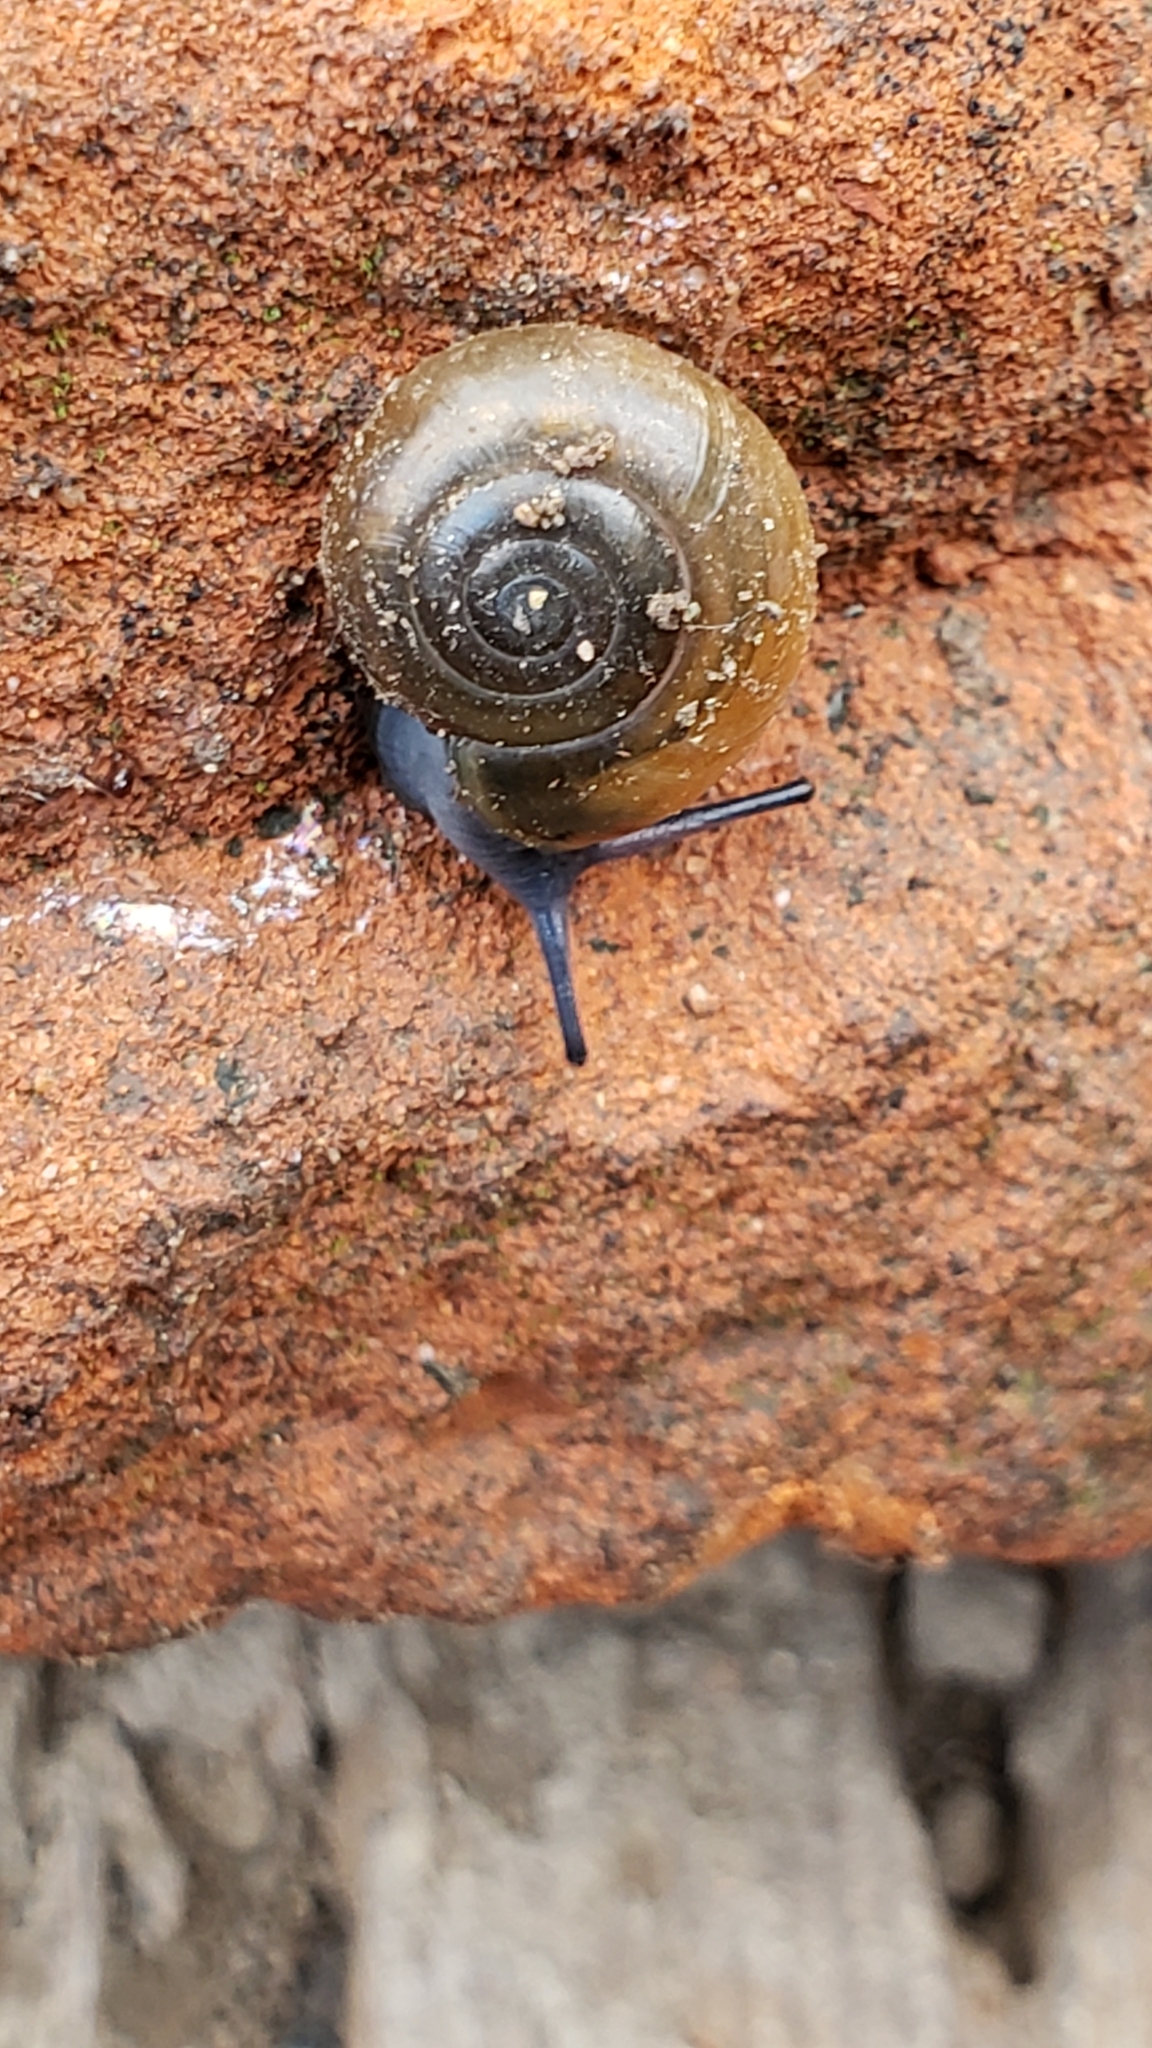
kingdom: Animalia
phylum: Mollusca
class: Gastropoda
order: Stylommatophora
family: Oxychilidae
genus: Oxychilus
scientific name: Oxychilus draparnaudi
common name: Draparnaud's glass snail
